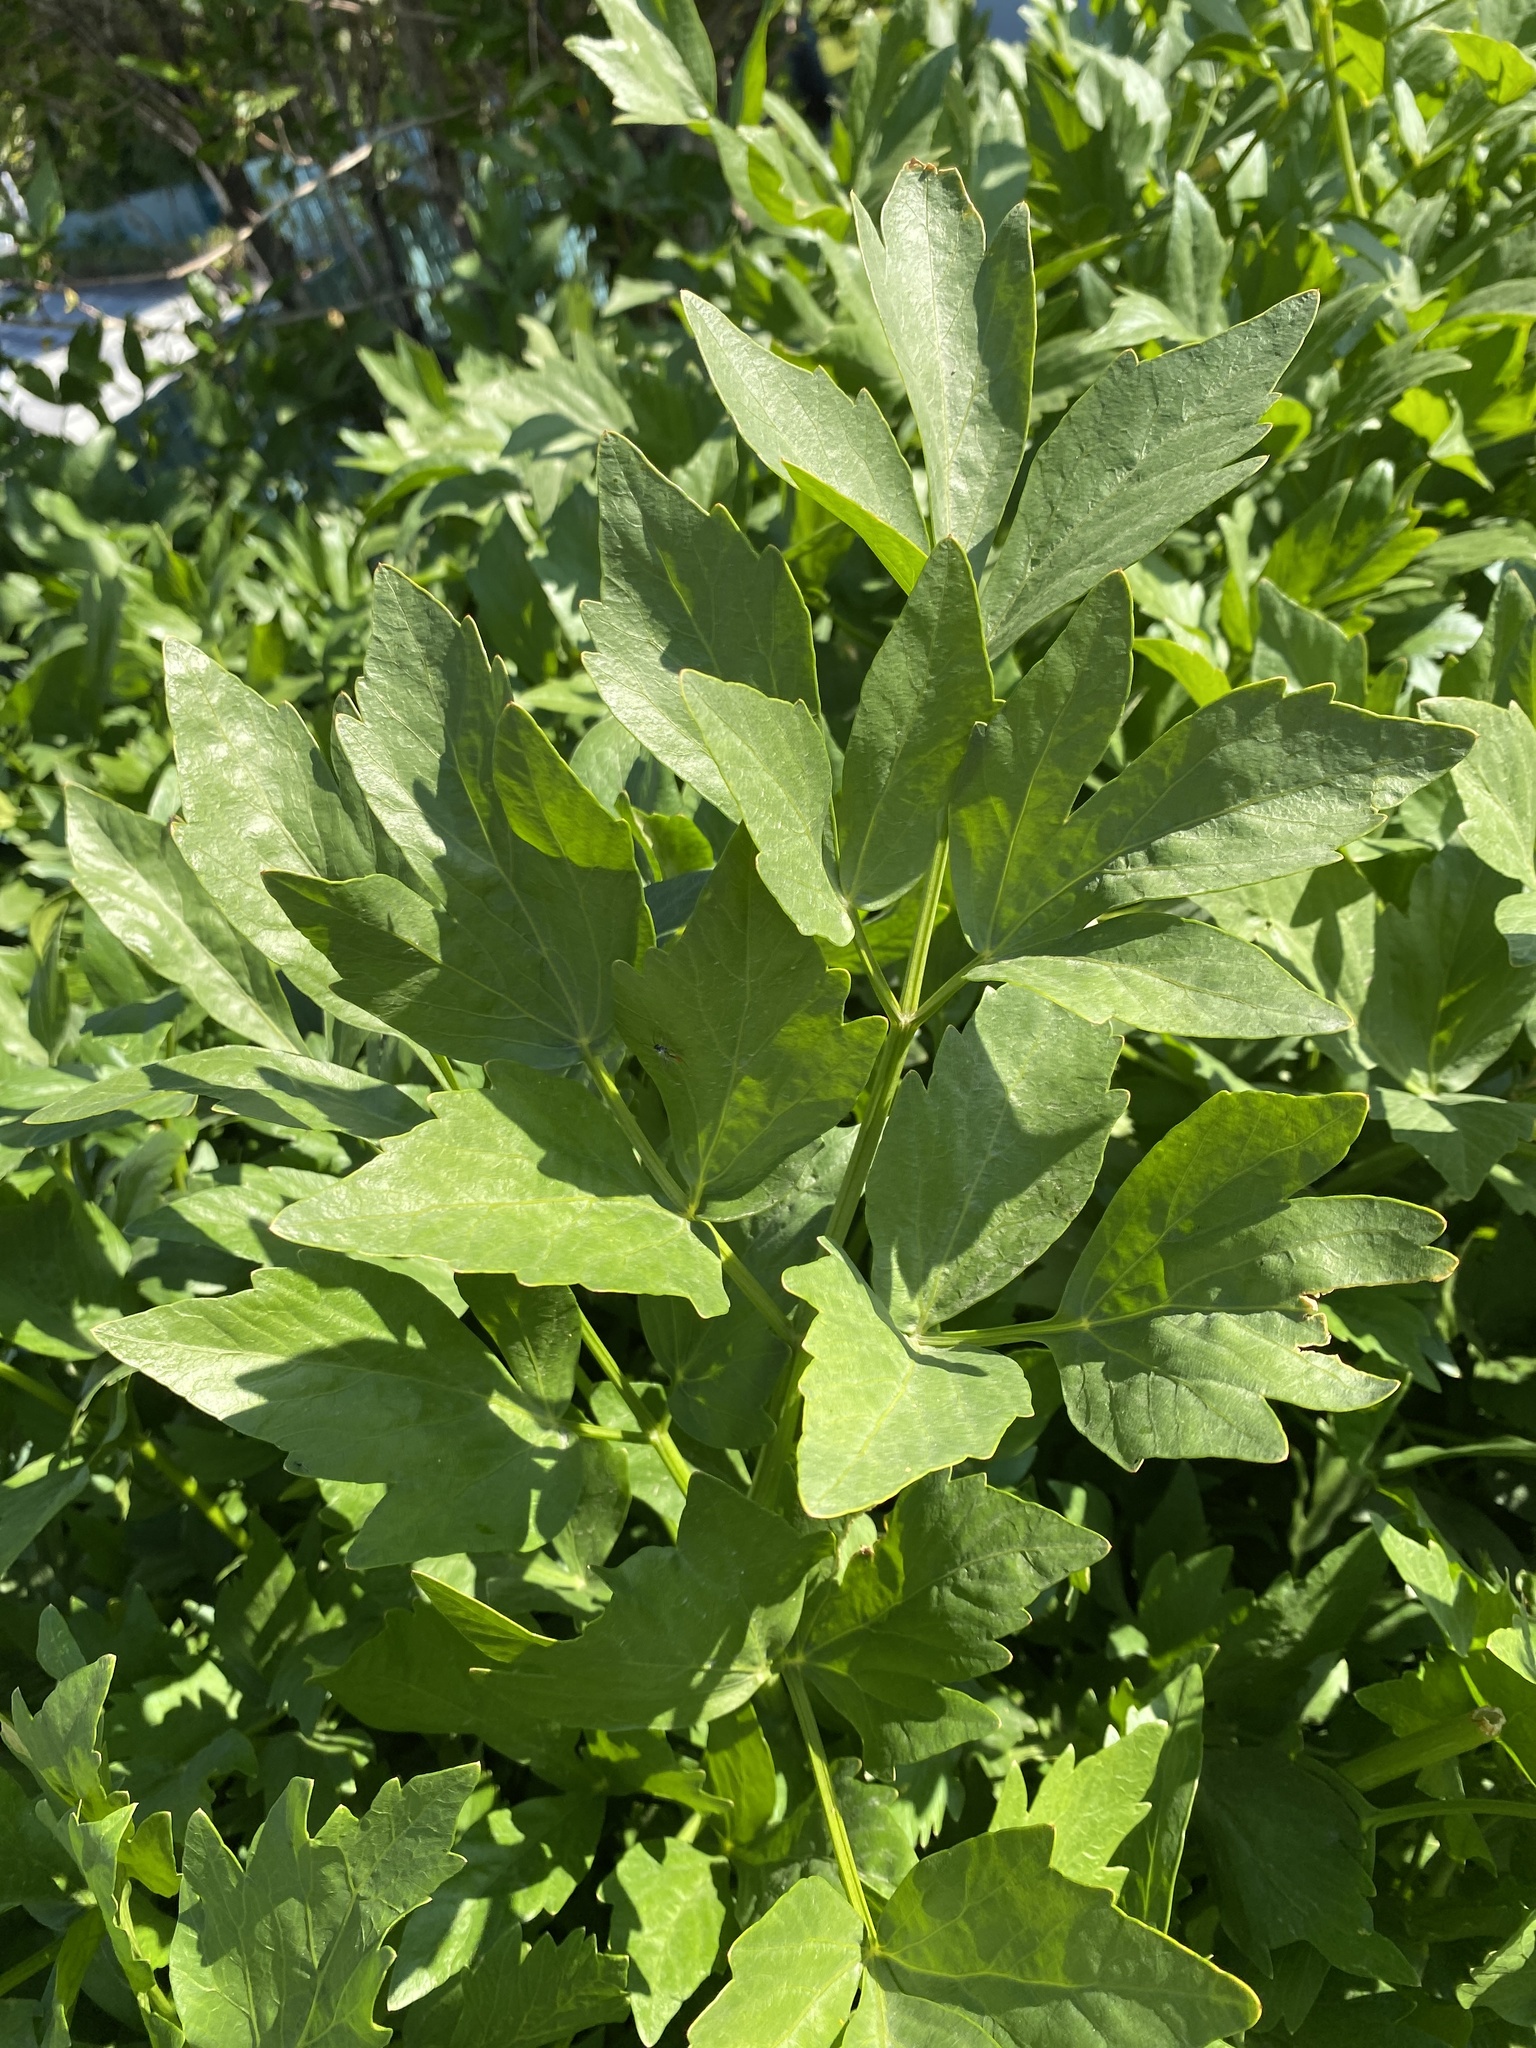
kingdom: Plantae
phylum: Tracheophyta
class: Magnoliopsida
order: Apiales
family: Apiaceae
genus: Levisticum
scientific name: Levisticum officinale
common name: Lovage
